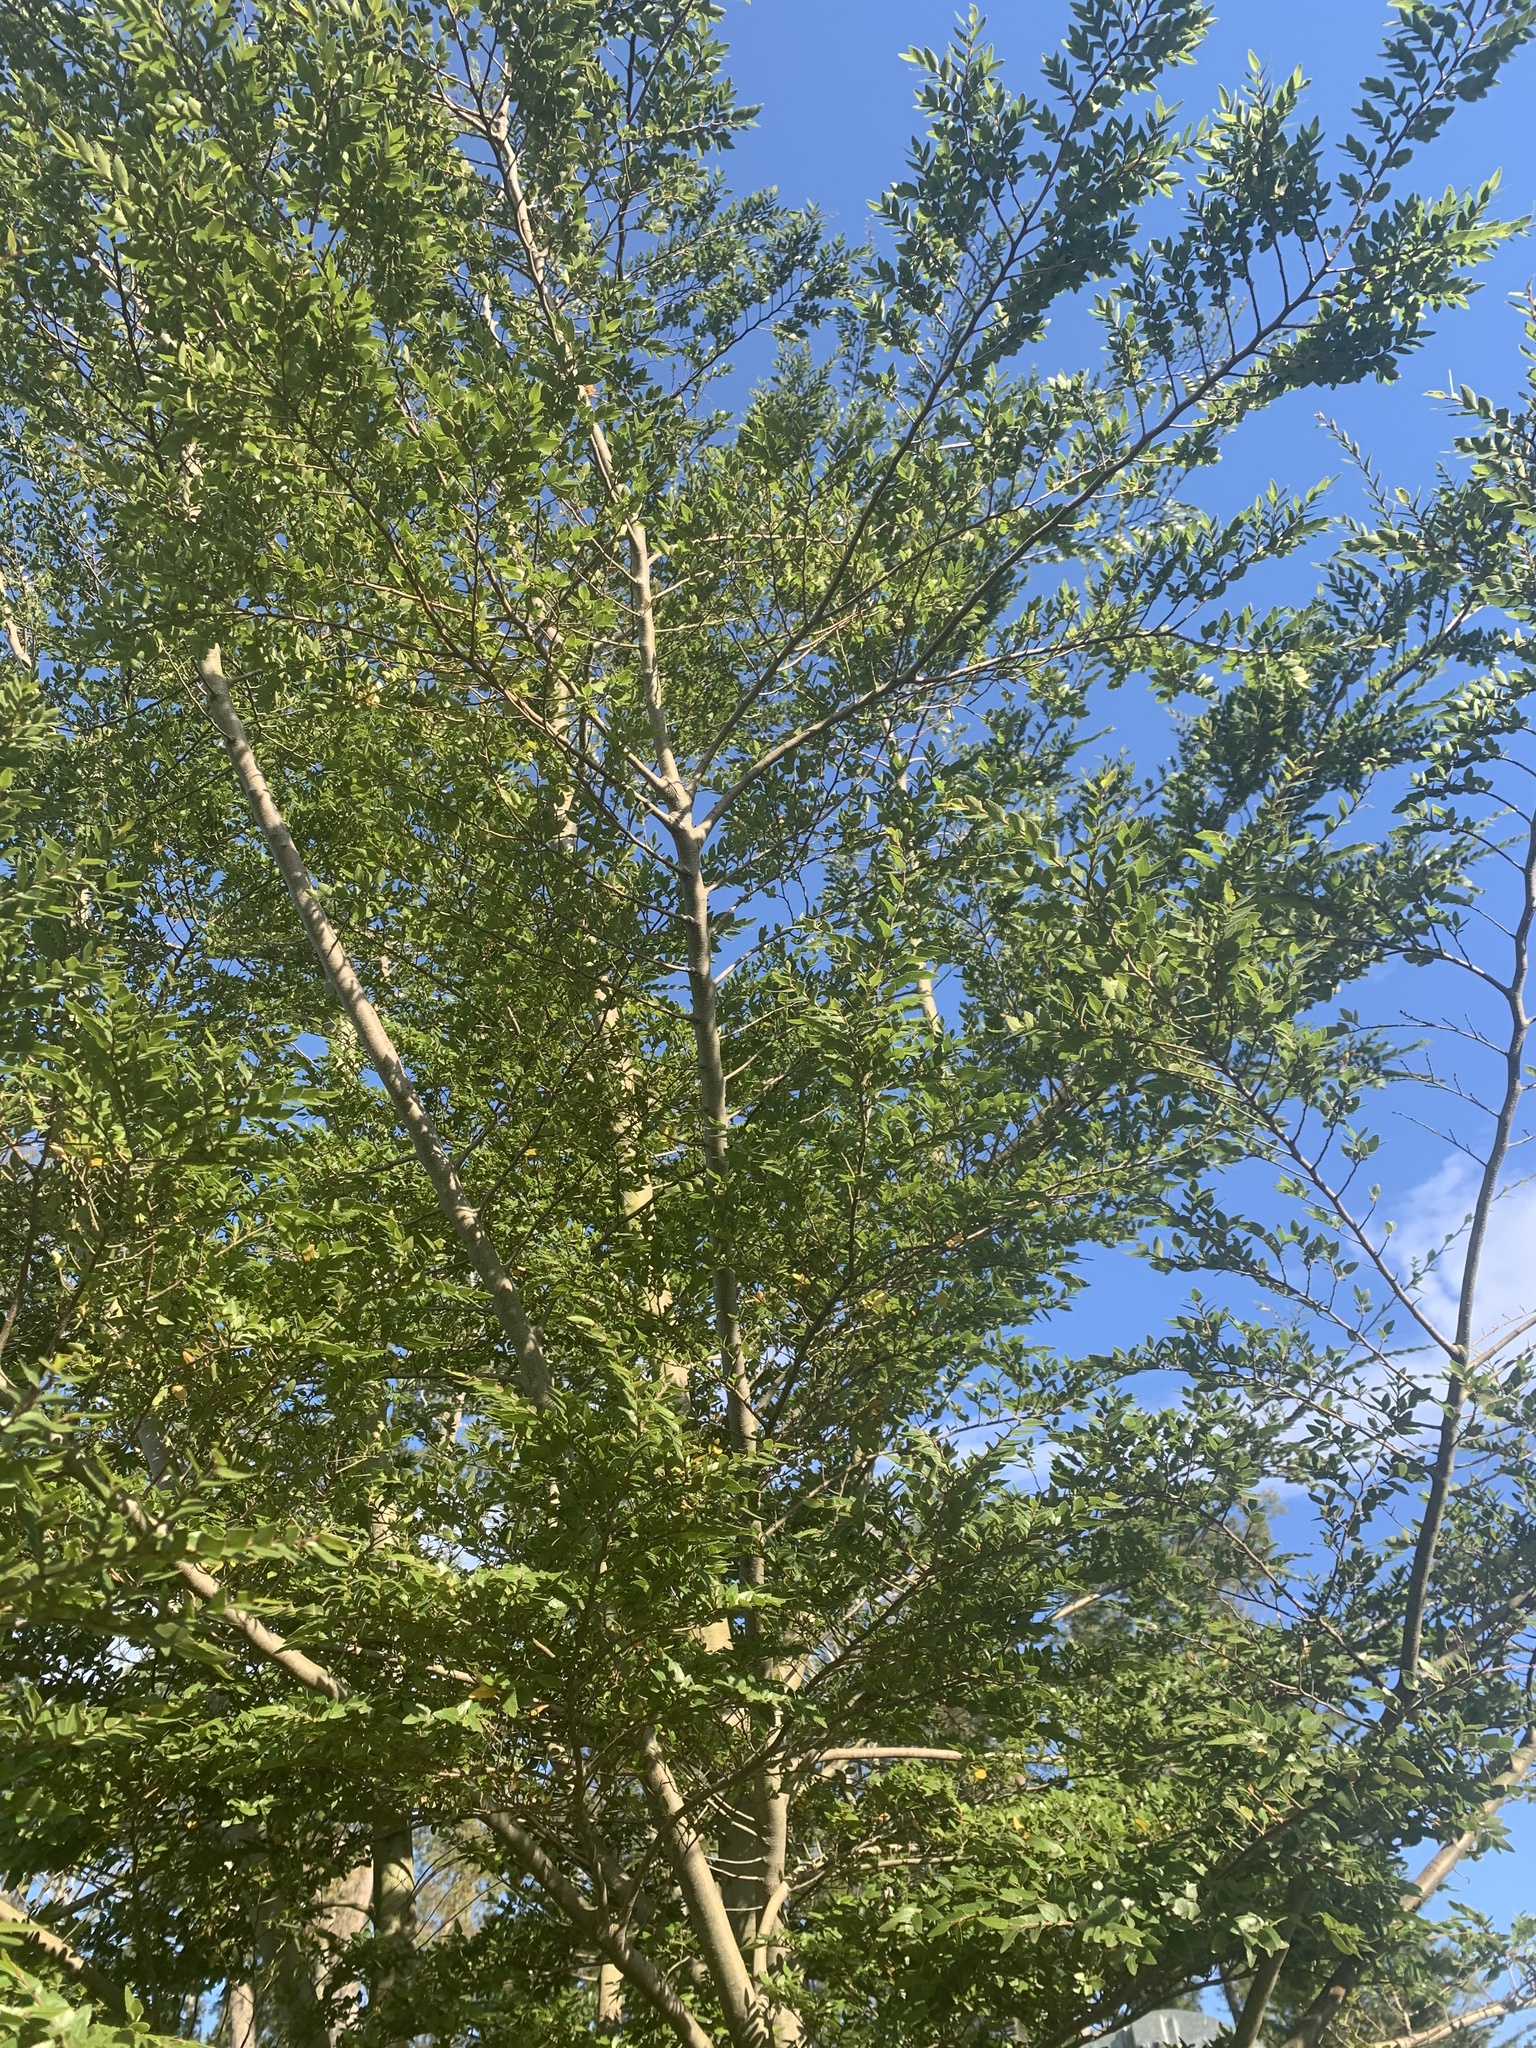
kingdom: Plantae
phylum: Tracheophyta
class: Magnoliopsida
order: Fagales
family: Nothofagaceae
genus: Nothofagus
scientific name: Nothofagus dombeyi
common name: Coigue
